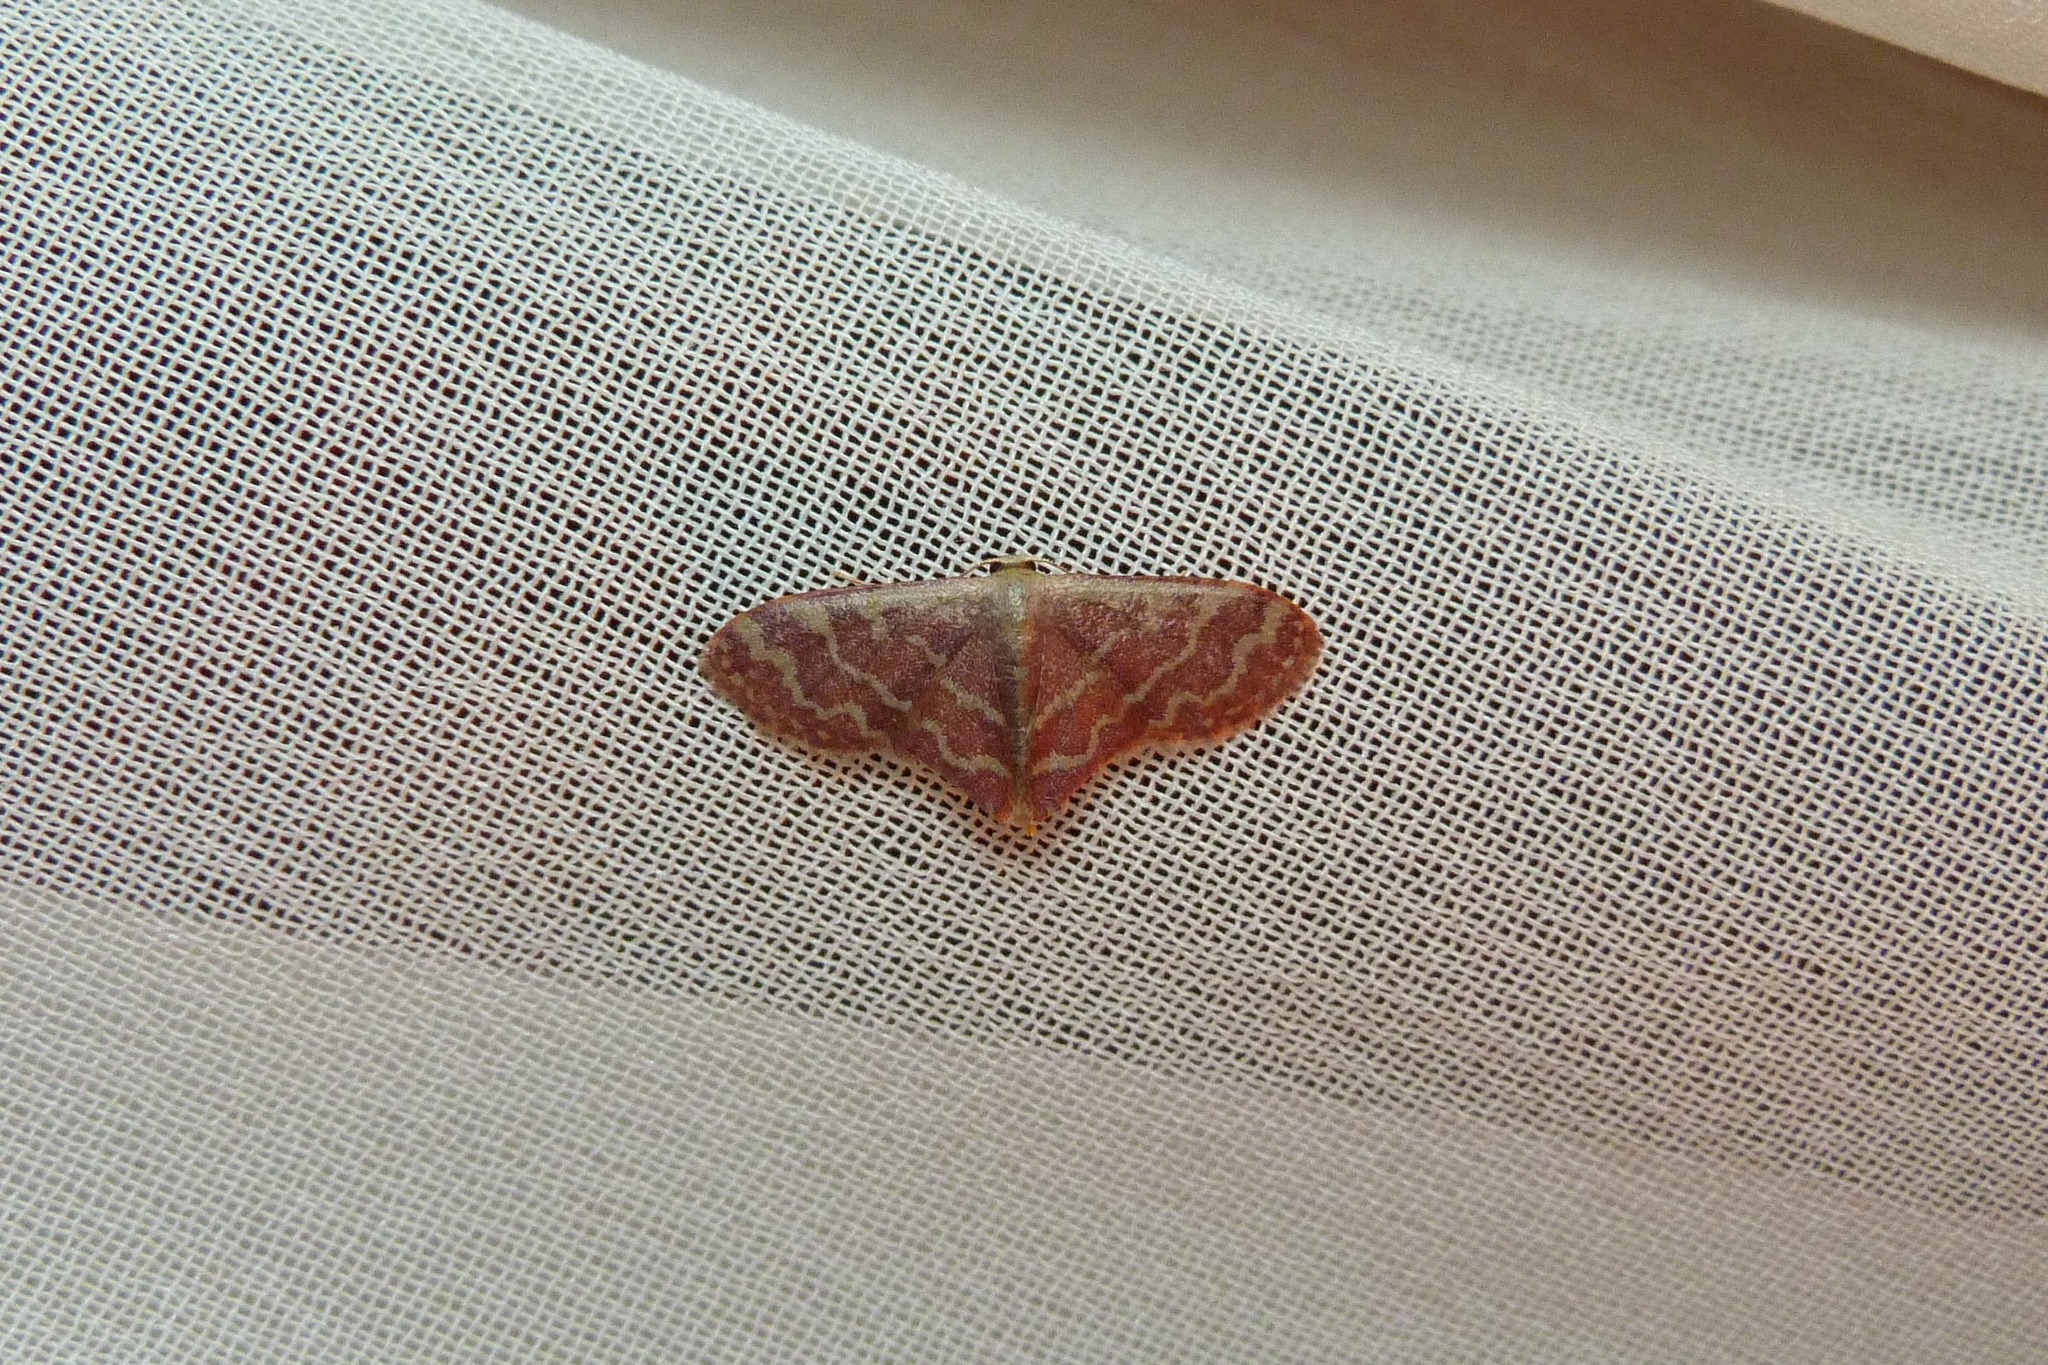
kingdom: Animalia
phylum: Arthropoda
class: Insecta
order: Lepidoptera
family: Geometridae
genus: Lophophleps
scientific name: Lophophleps phoenicoptera
